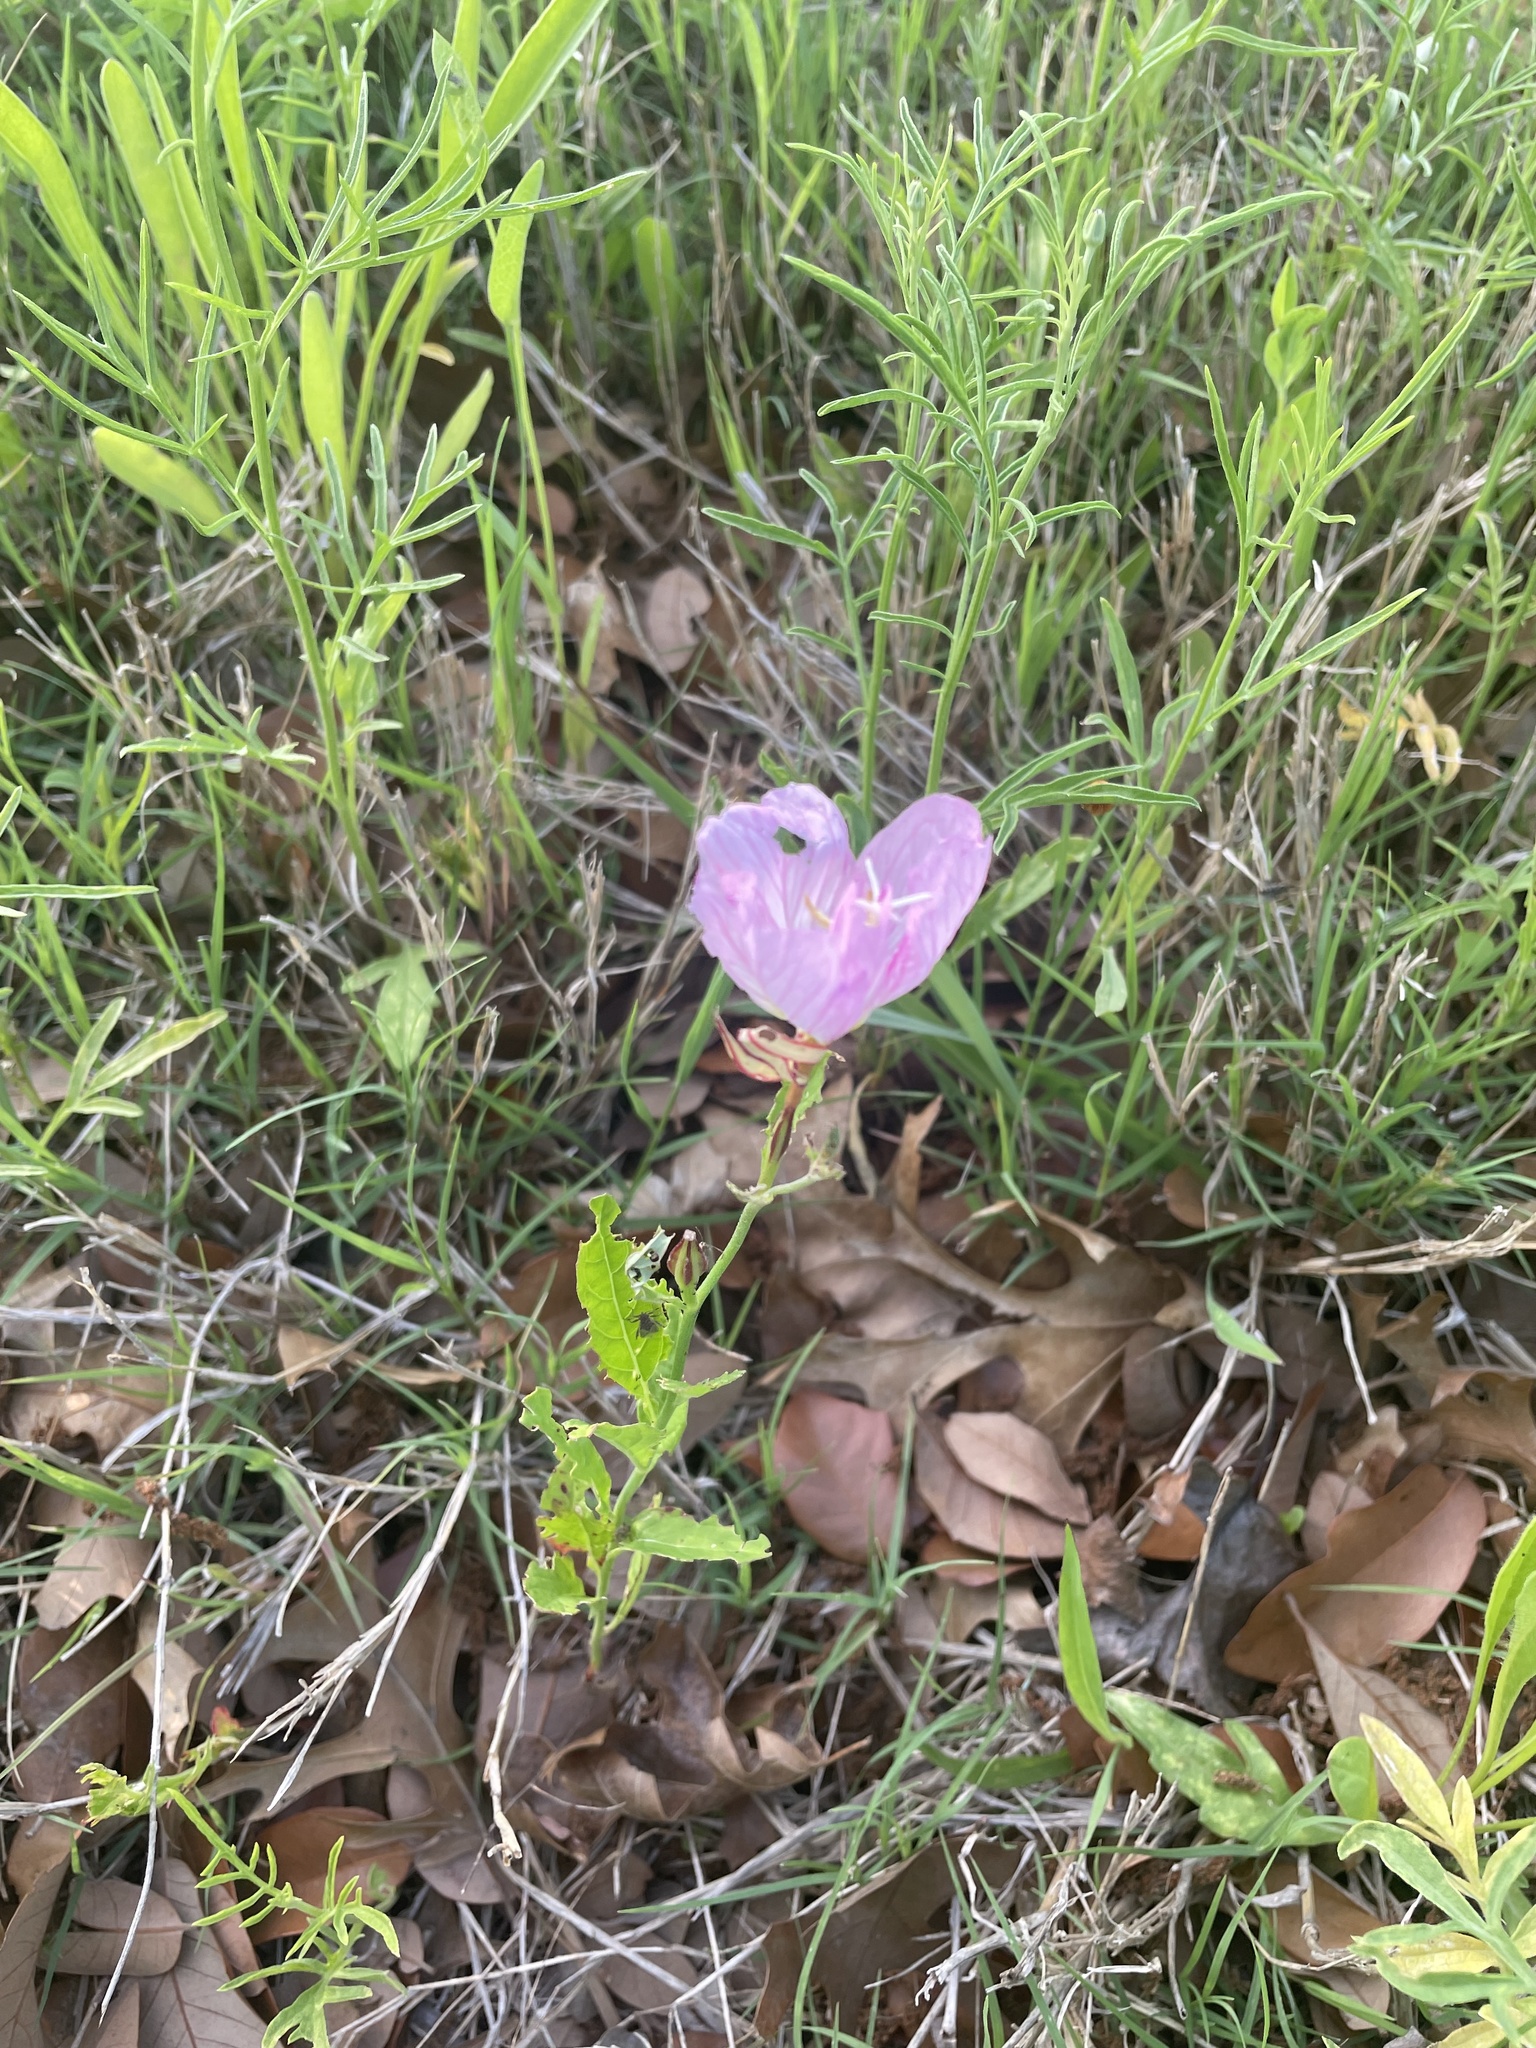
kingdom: Plantae
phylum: Tracheophyta
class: Magnoliopsida
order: Myrtales
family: Onagraceae
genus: Oenothera
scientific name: Oenothera speciosa
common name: White evening-primrose
